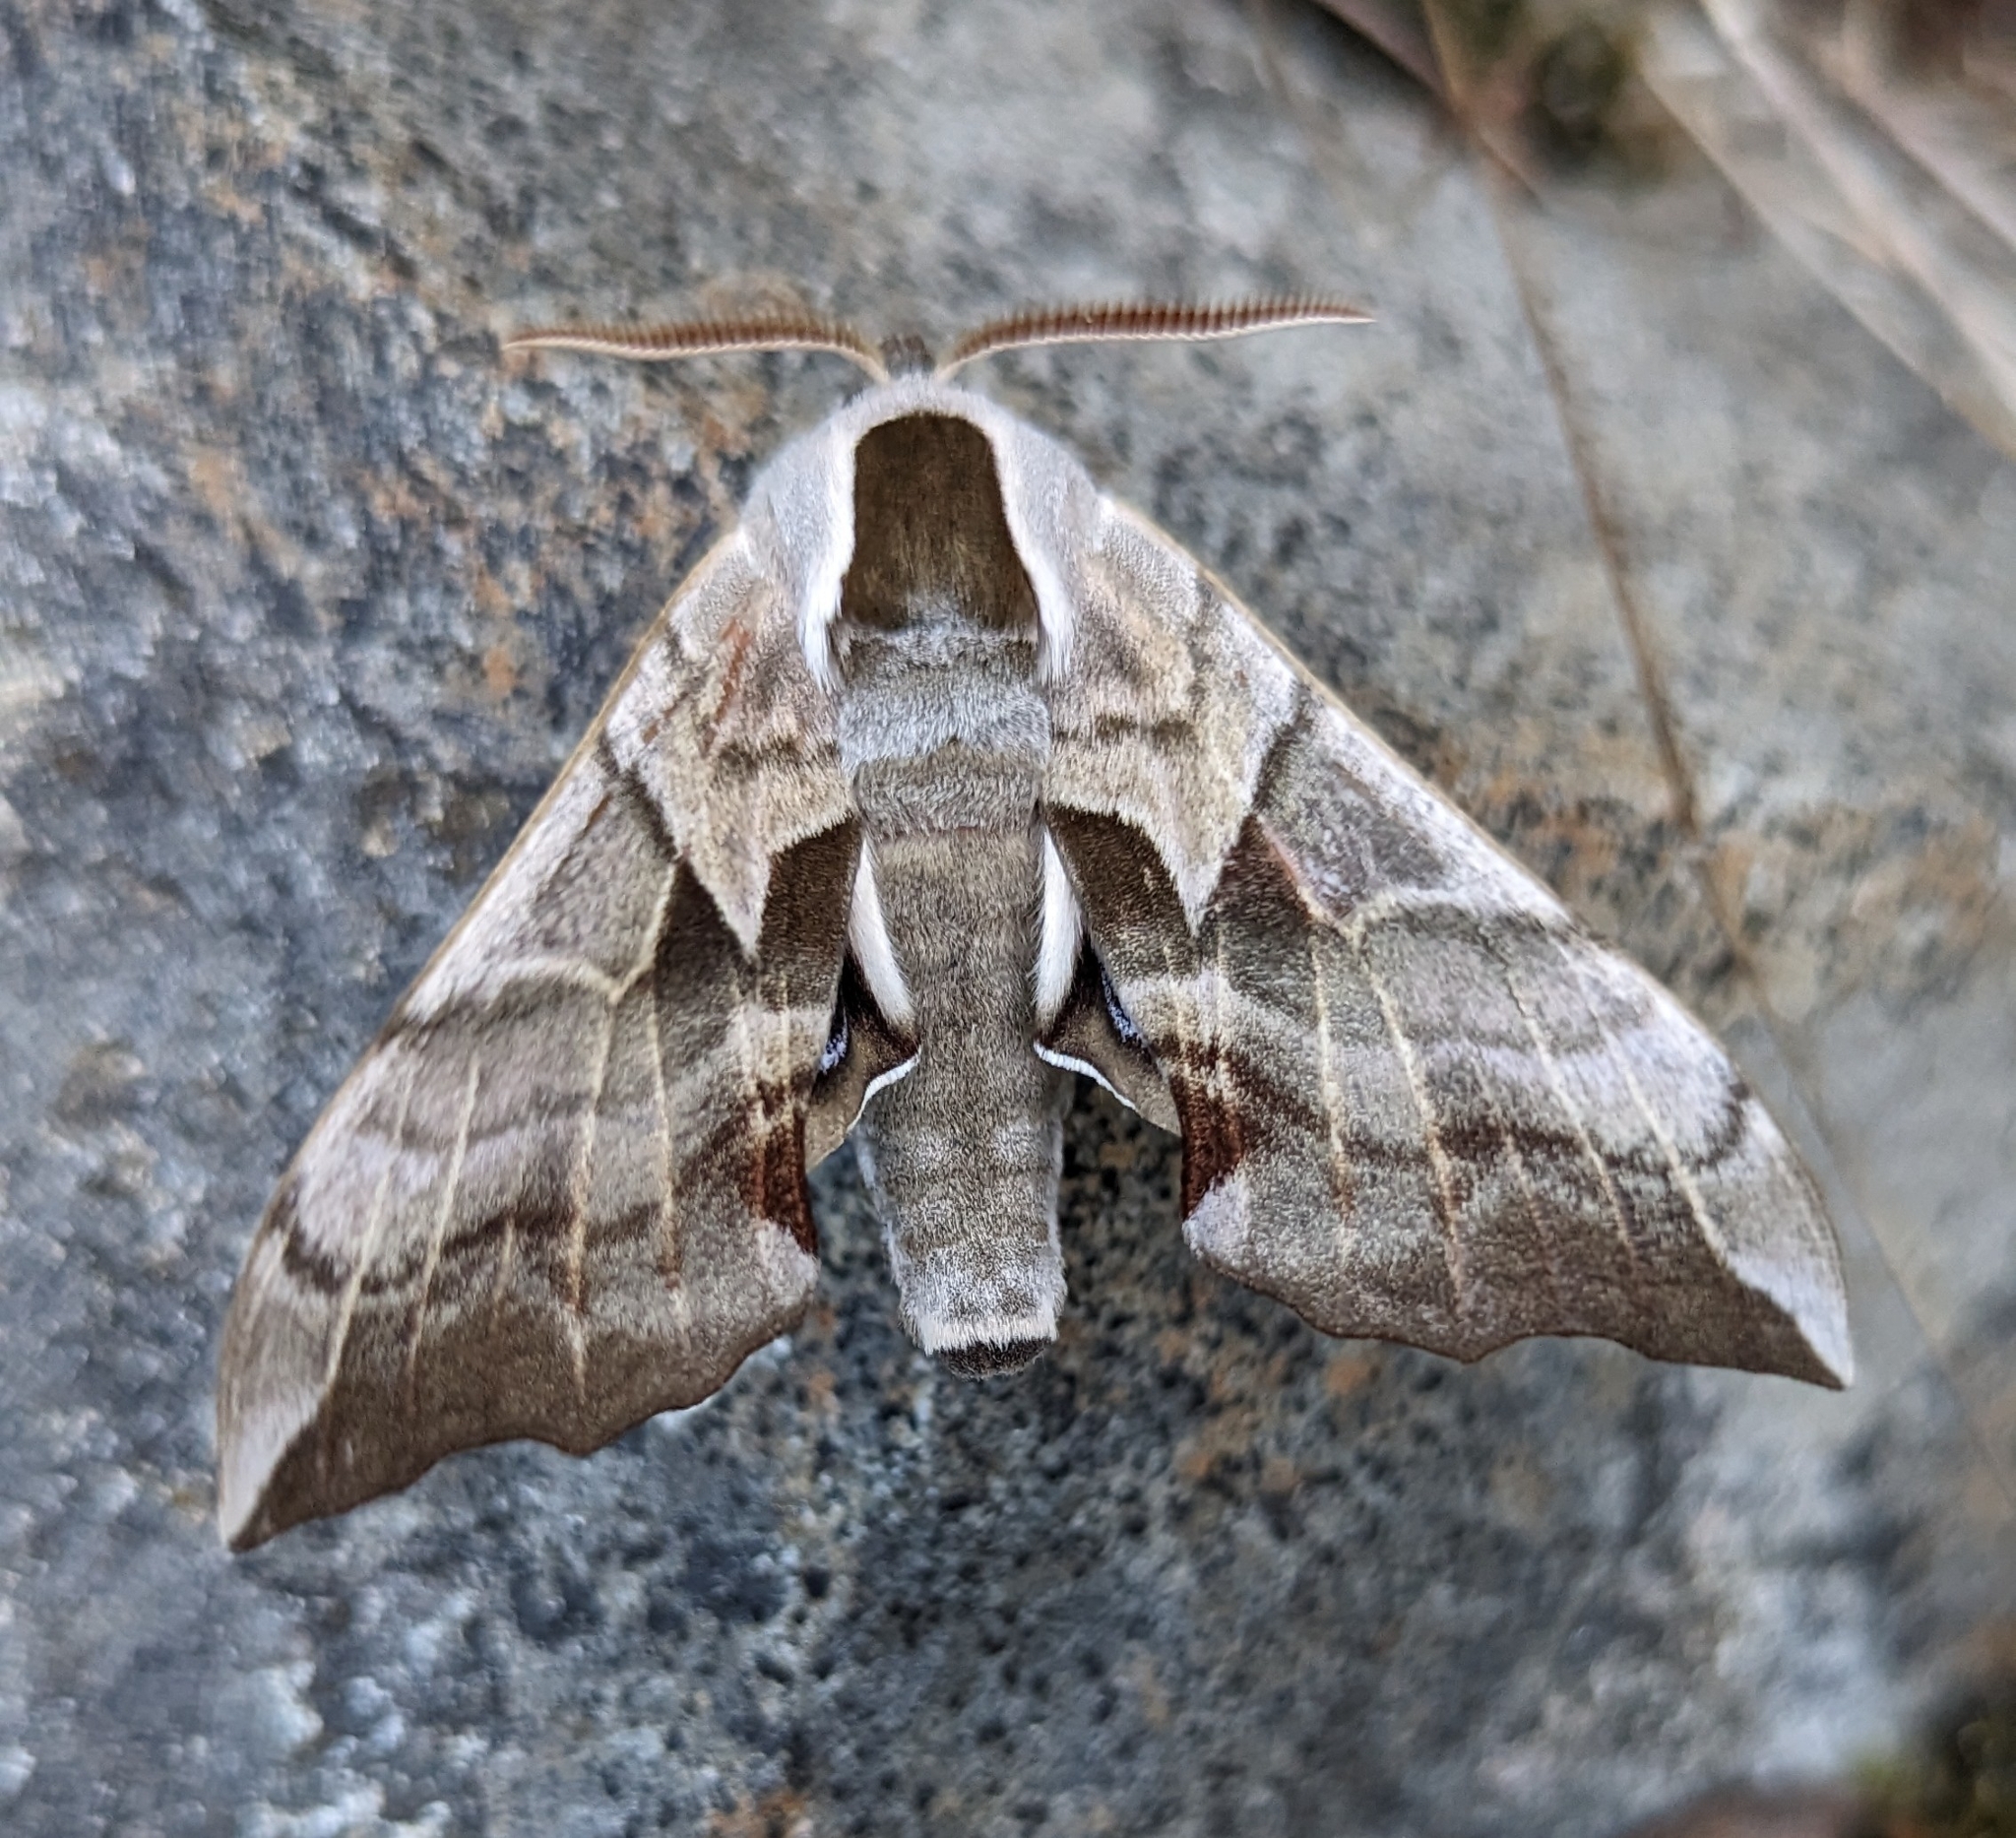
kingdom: Animalia
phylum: Arthropoda
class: Insecta
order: Lepidoptera
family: Sphingidae
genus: Smerinthus
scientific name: Smerinthus cerisyi
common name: Cerisy's sphinx moth
